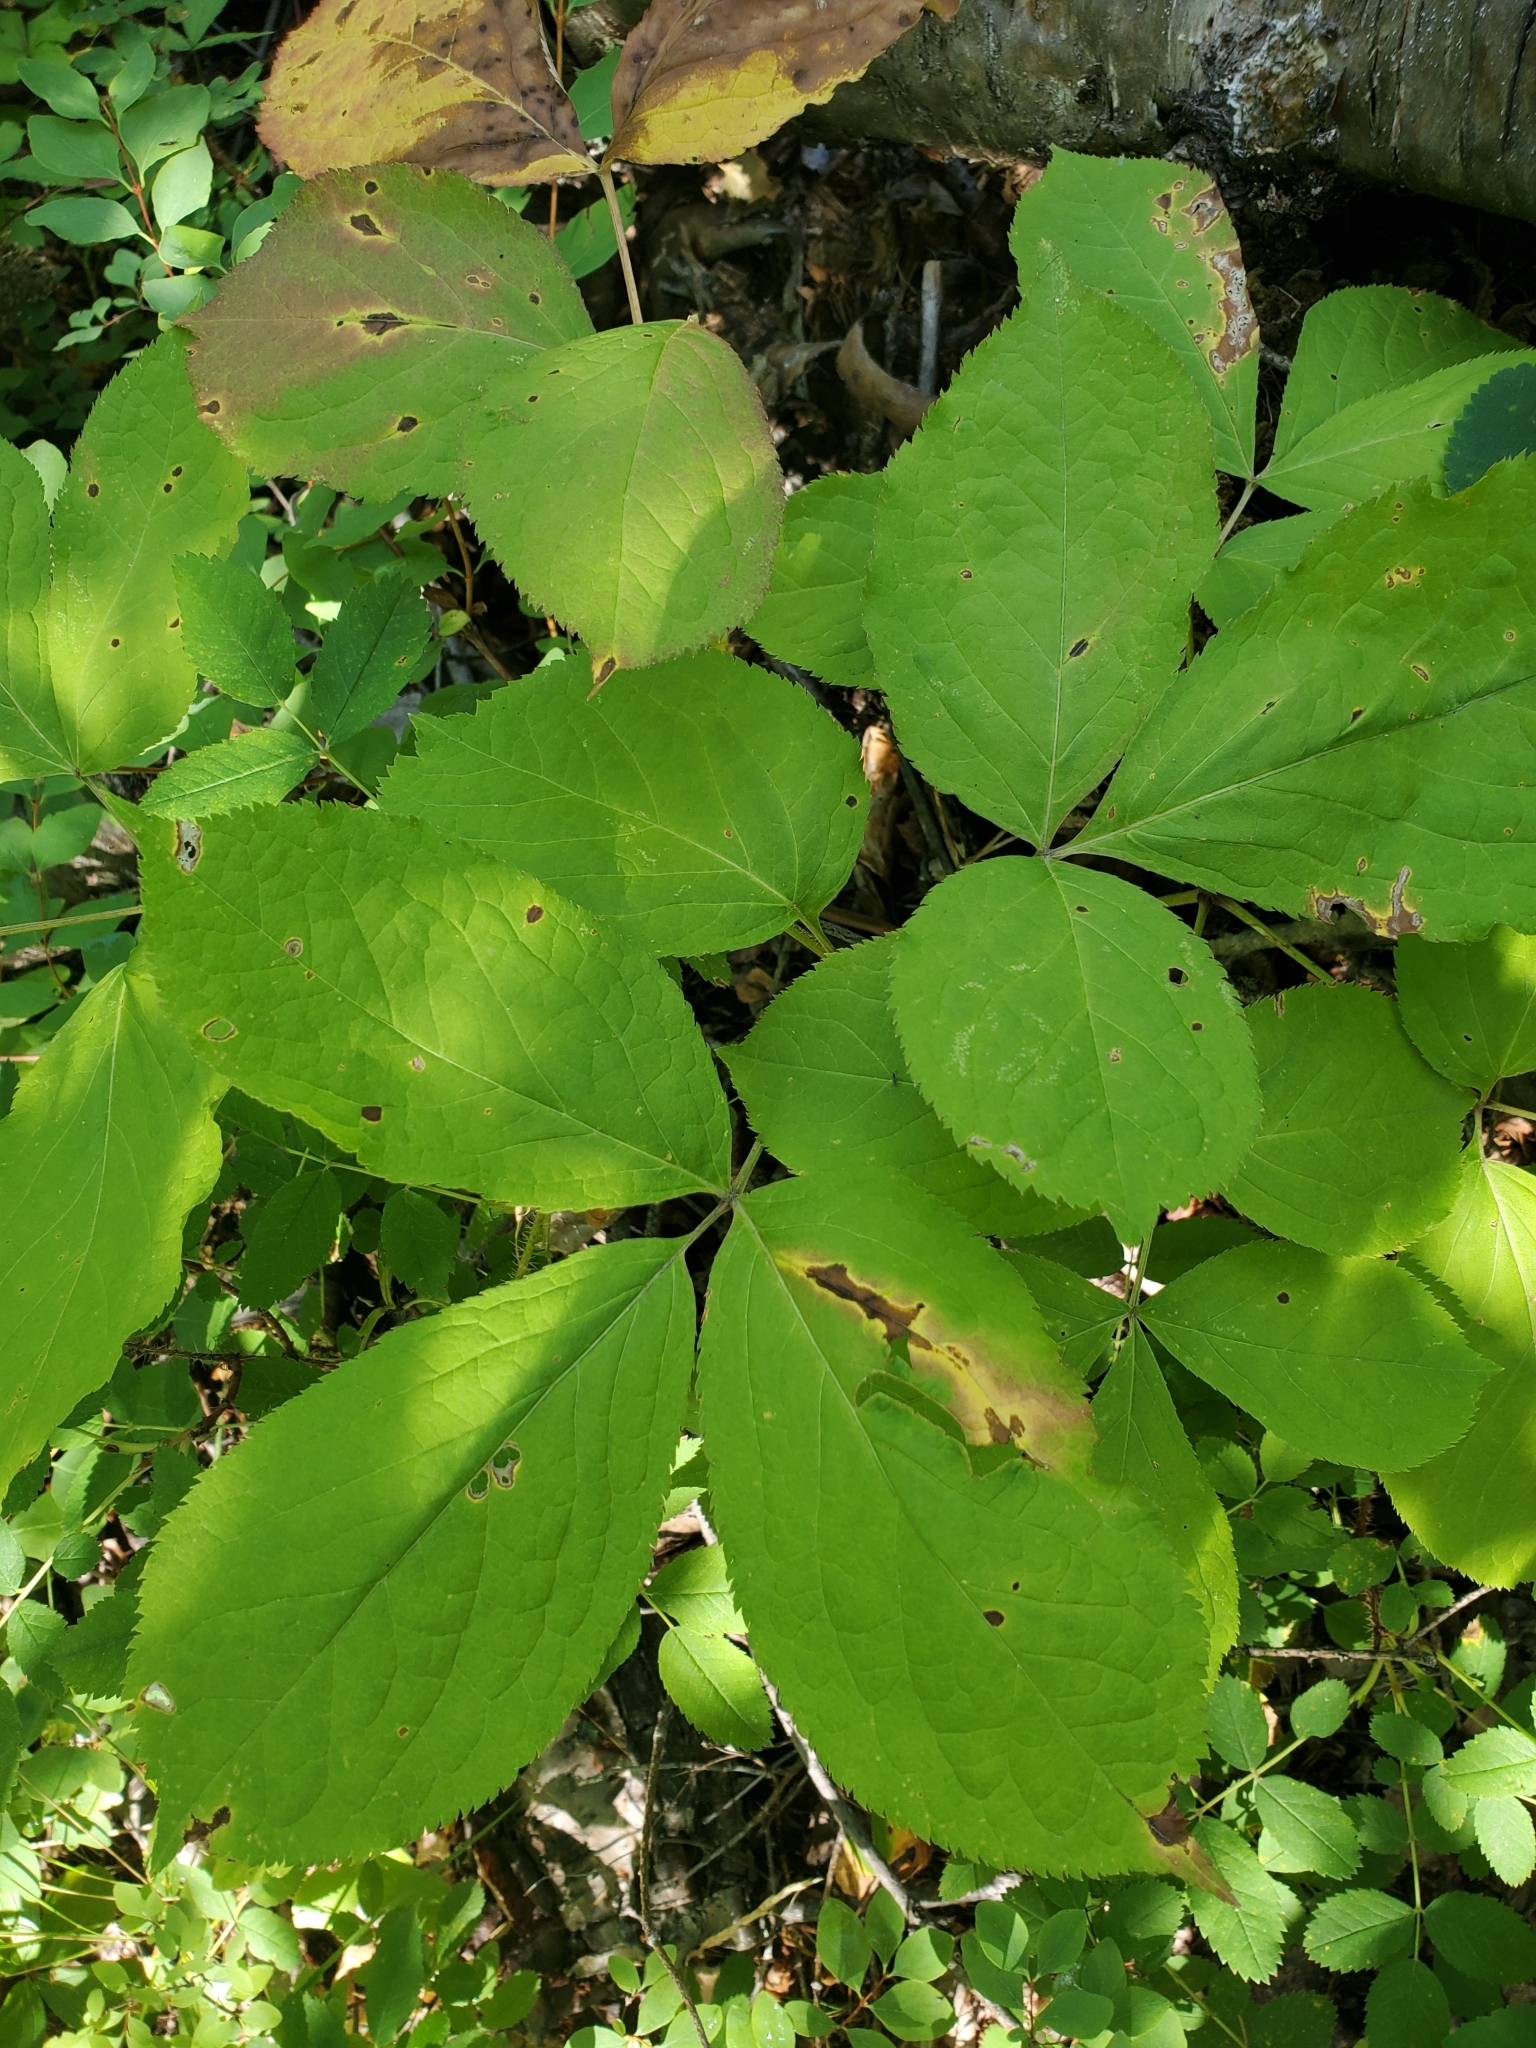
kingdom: Plantae
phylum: Tracheophyta
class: Magnoliopsida
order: Apiales
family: Araliaceae
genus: Aralia
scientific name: Aralia nudicaulis
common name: Wild sarsaparilla
